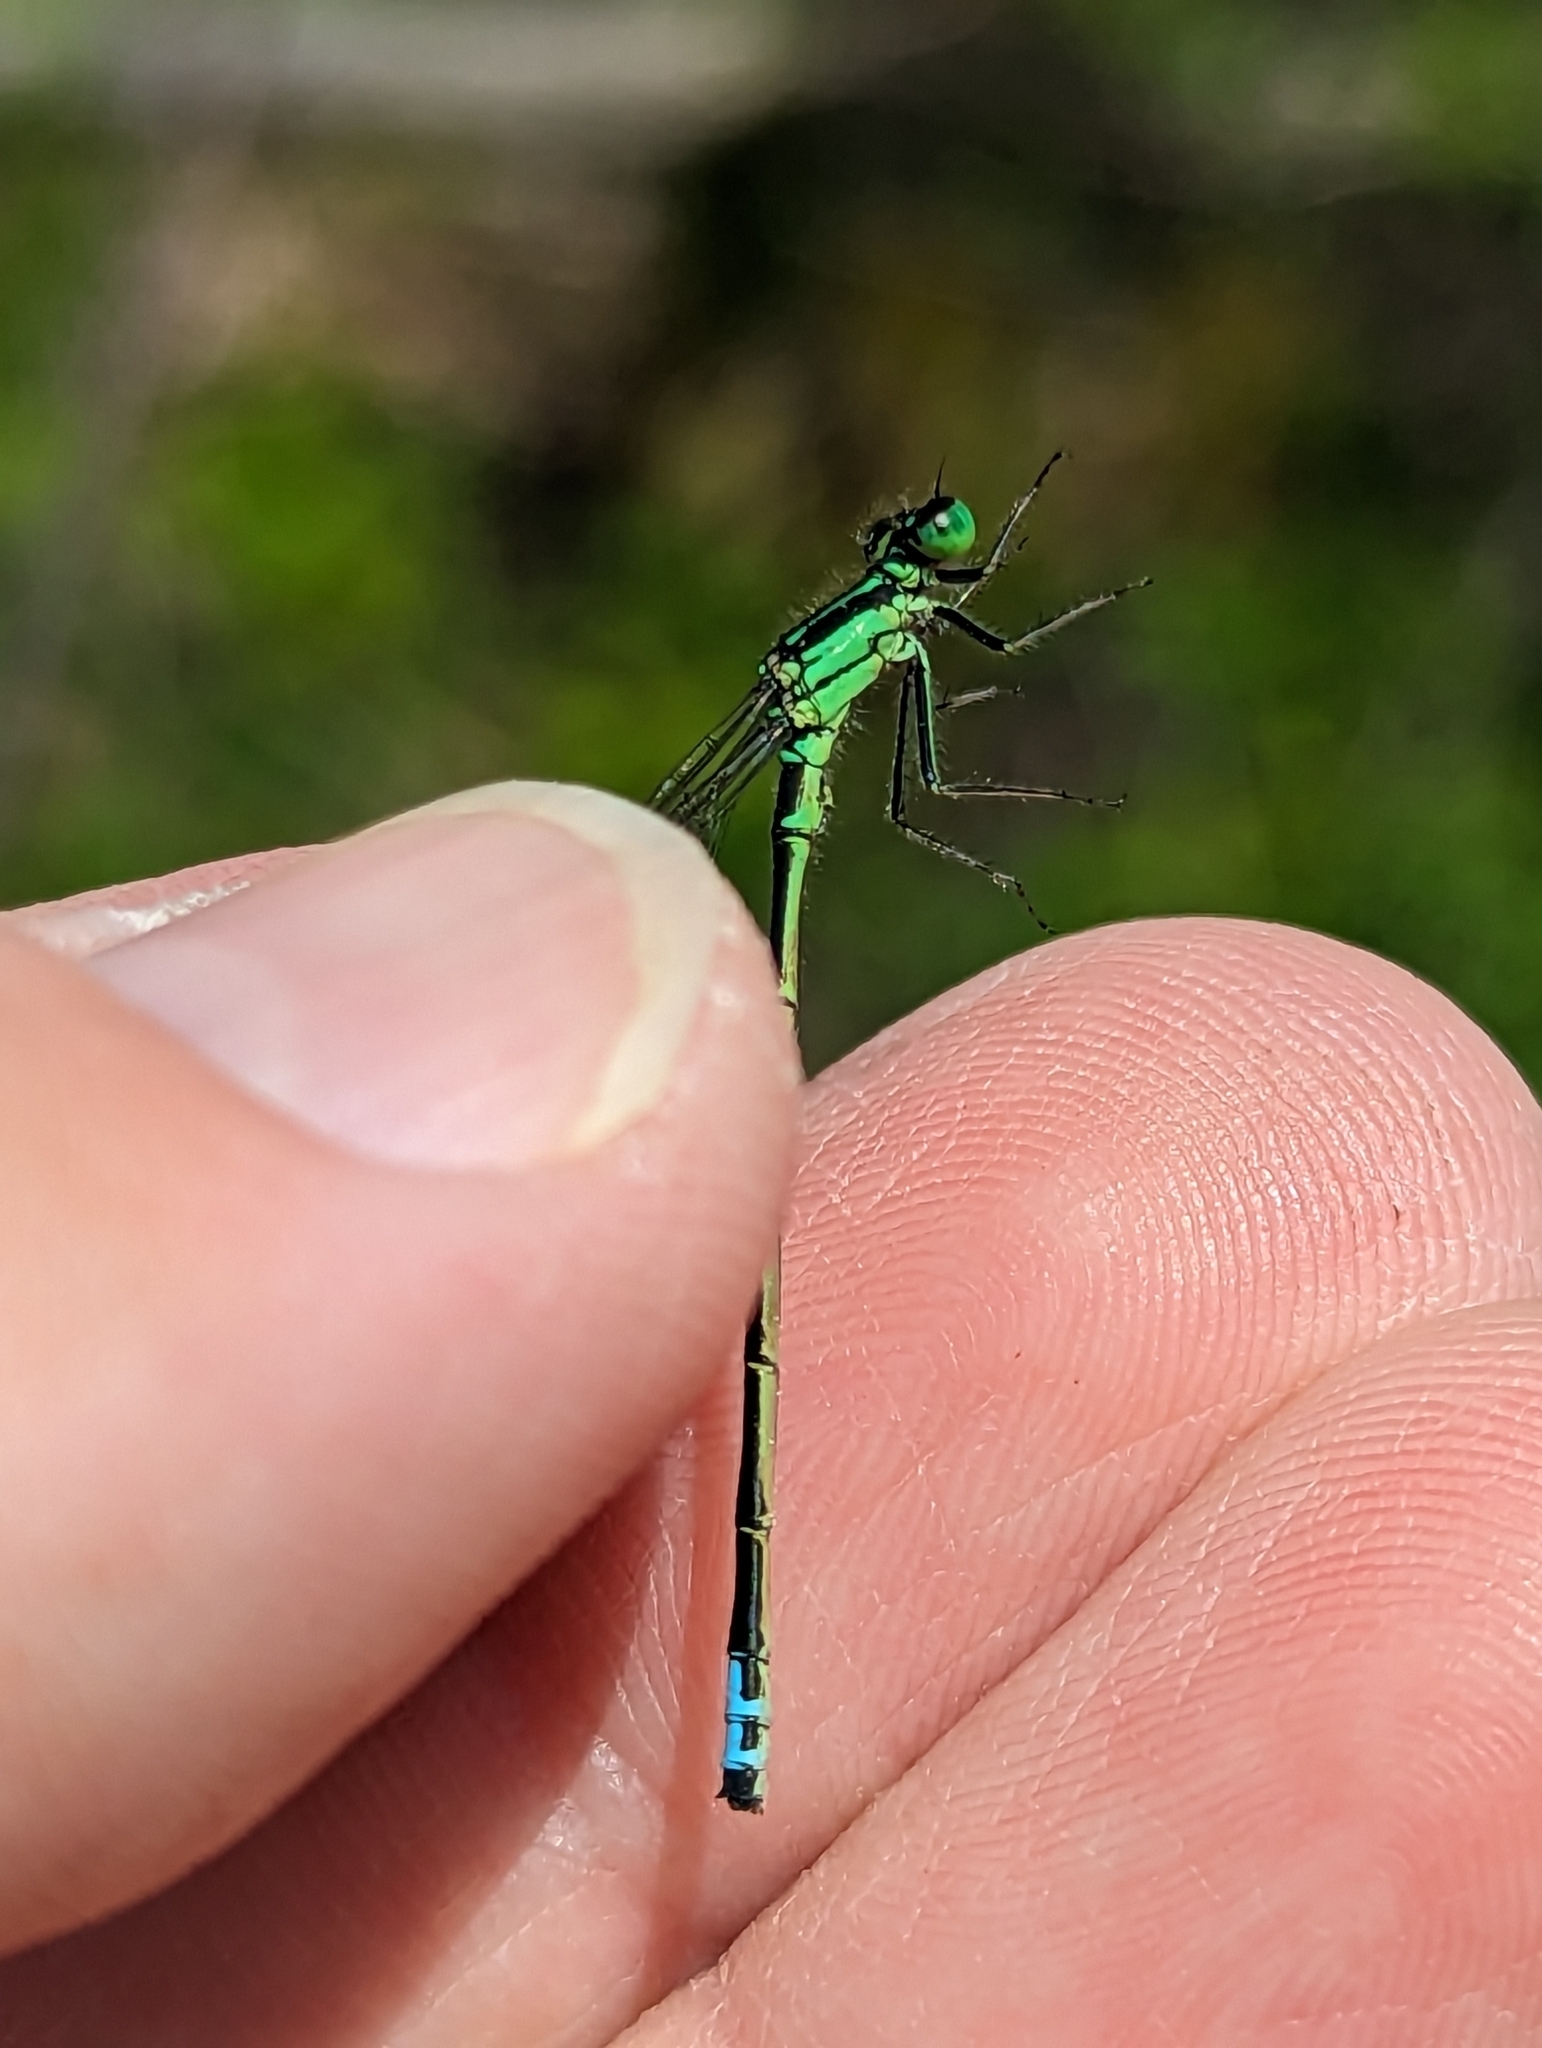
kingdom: Animalia
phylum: Arthropoda
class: Insecta
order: Odonata
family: Coenagrionidae
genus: Ischnura
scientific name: Ischnura verticalis
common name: Eastern forktail
